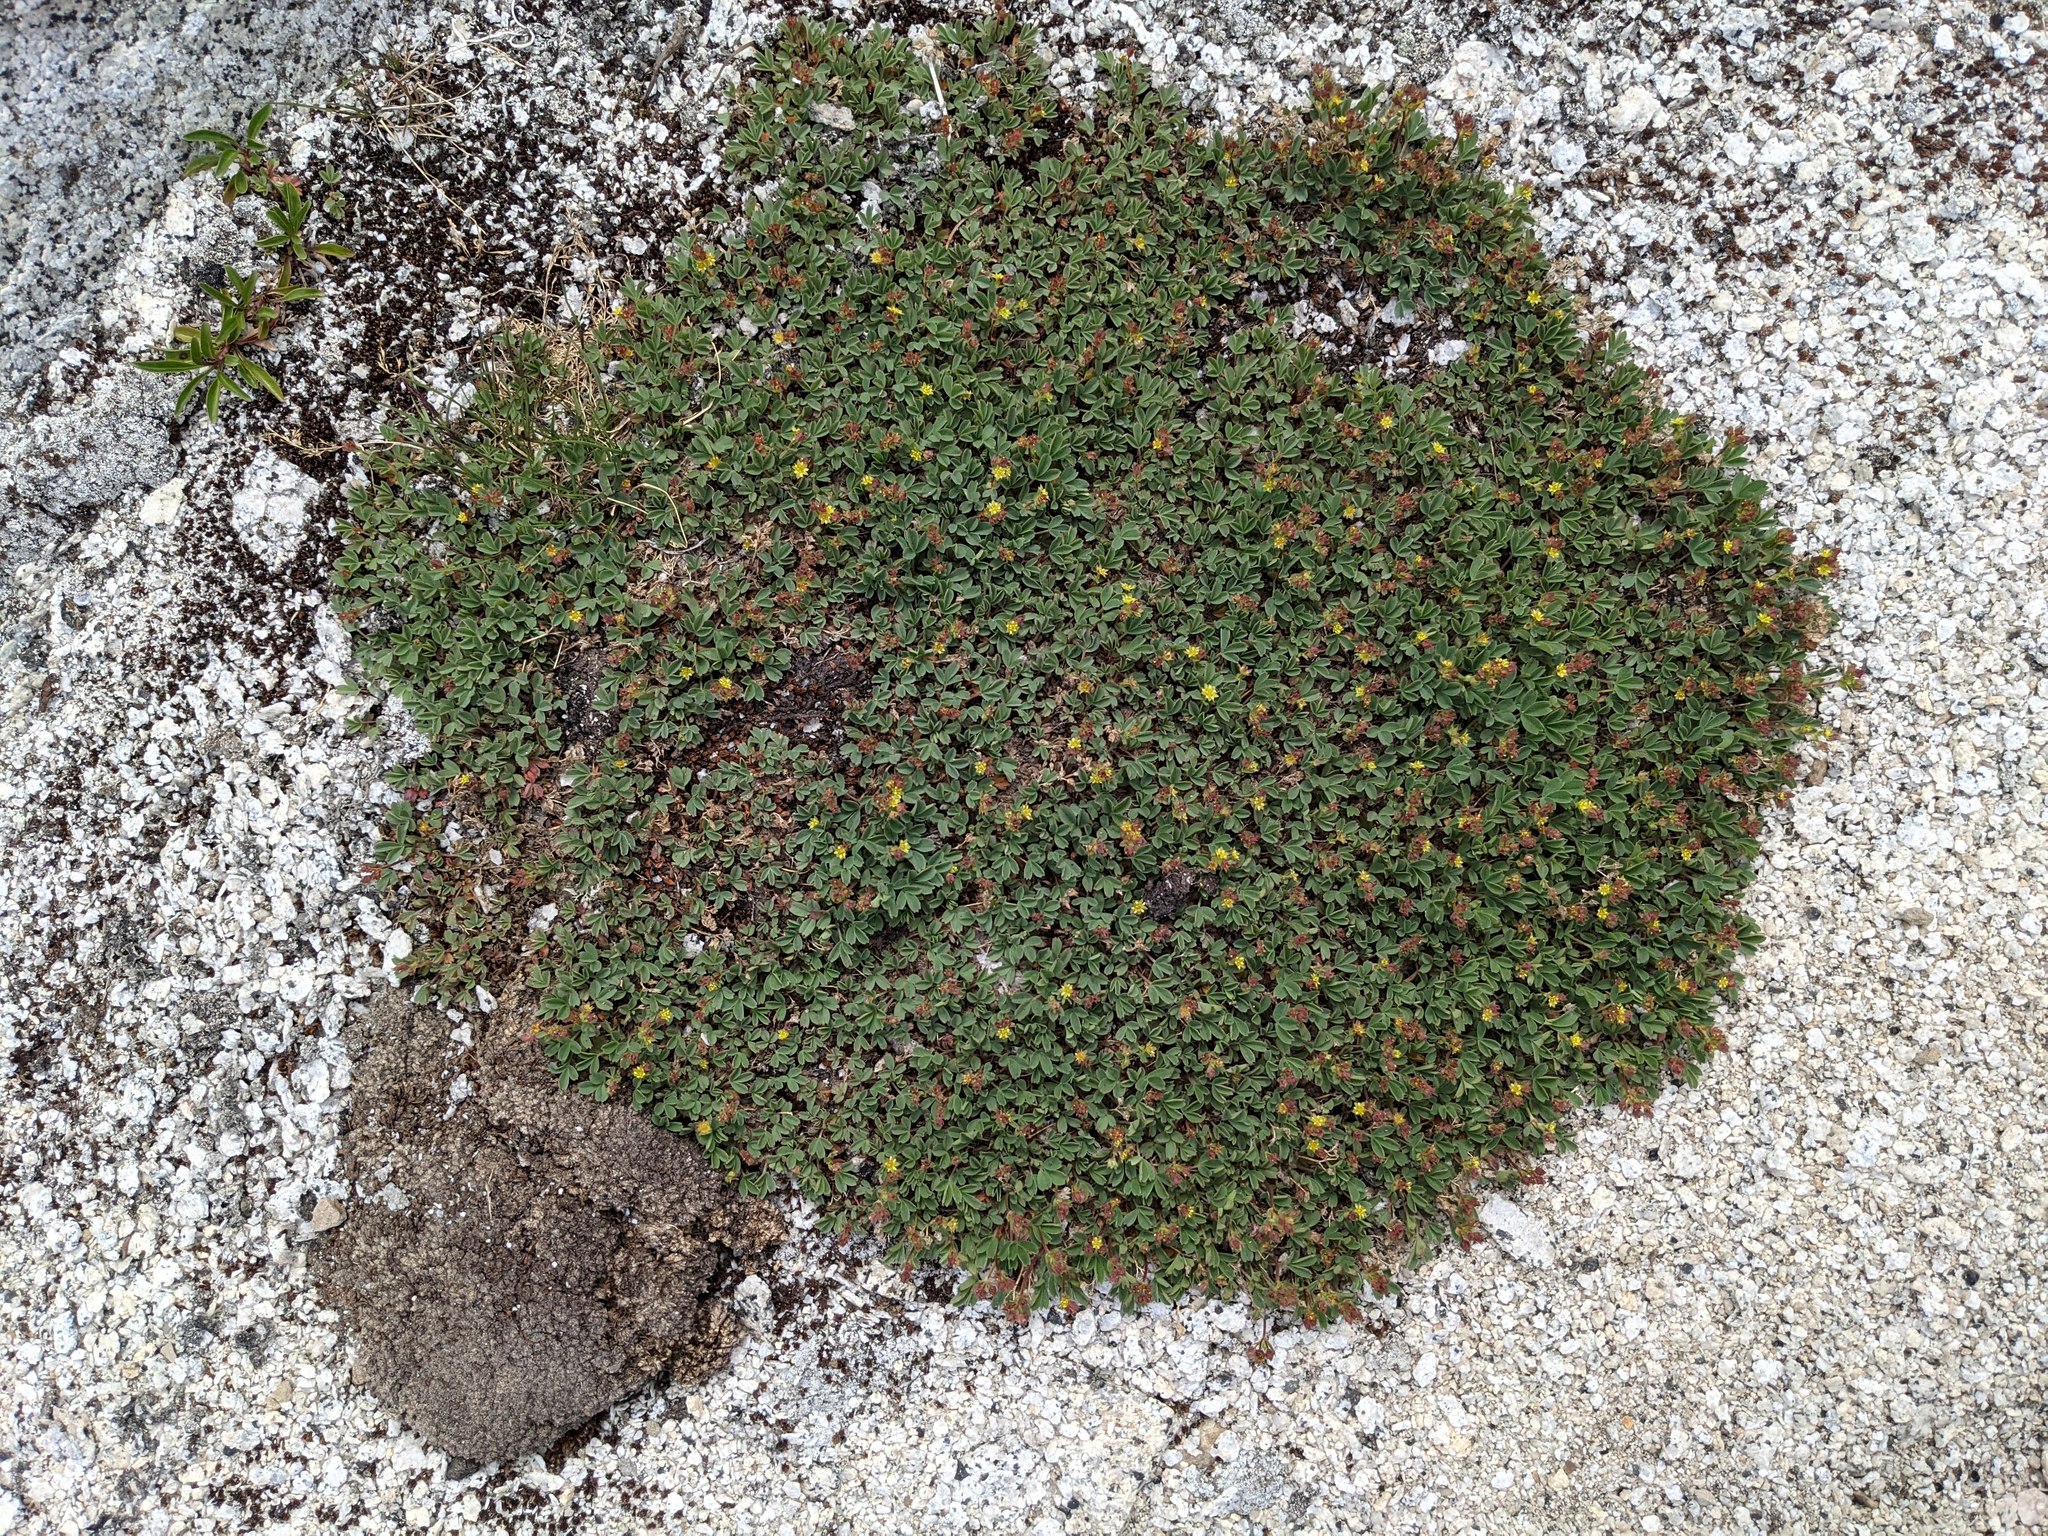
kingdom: Plantae
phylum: Tracheophyta
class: Magnoliopsida
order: Rosales
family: Rosaceae
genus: Sibbaldia
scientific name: Sibbaldia procumbens
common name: Creeping sibbaldia
